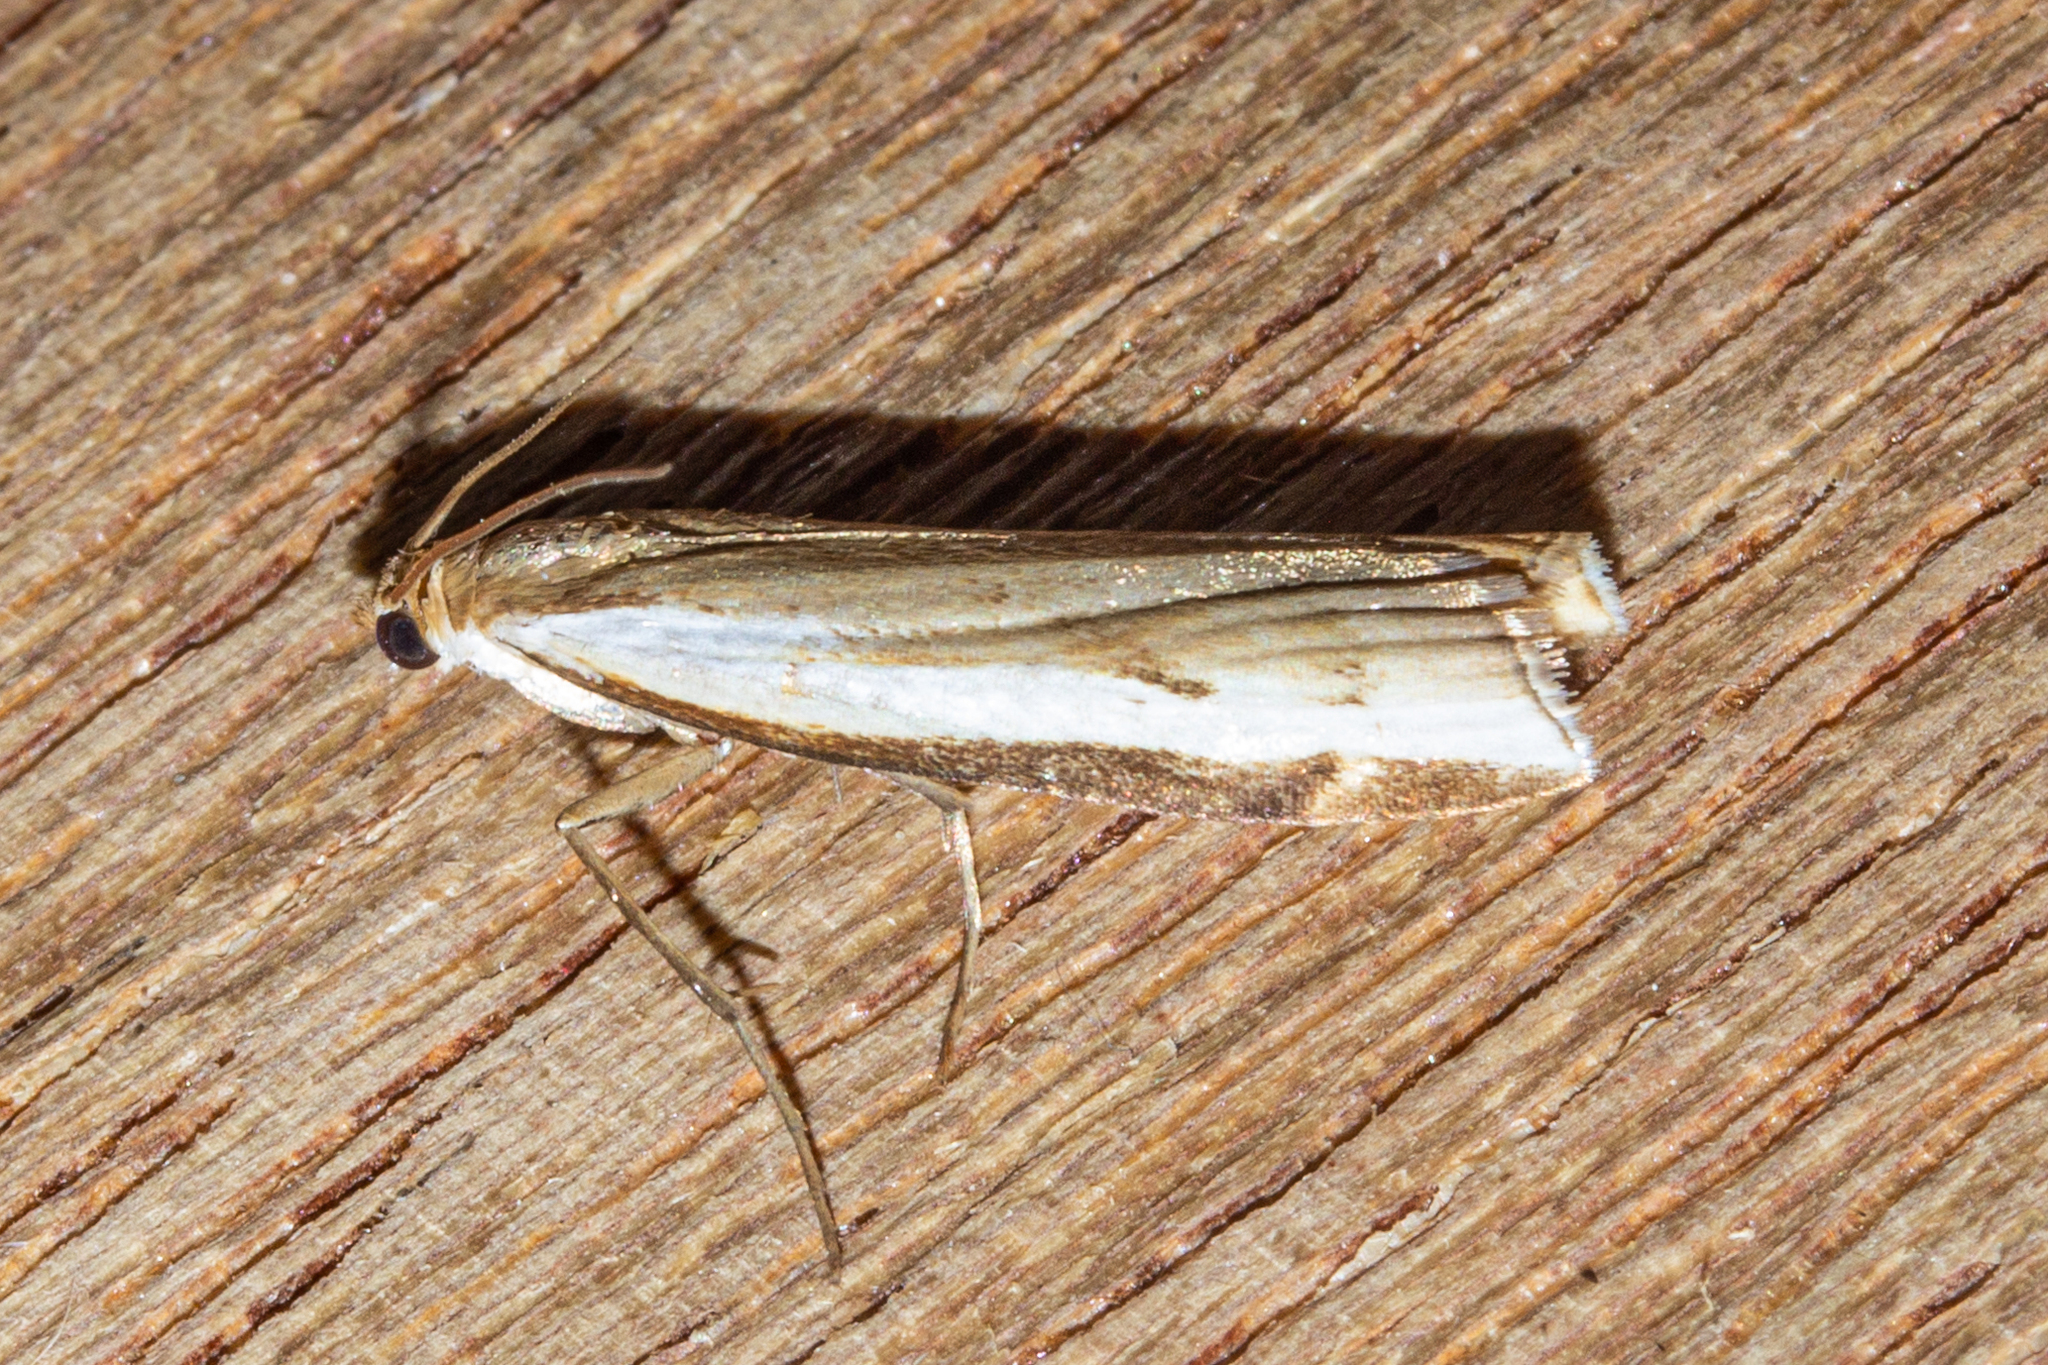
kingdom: Animalia
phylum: Arthropoda
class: Insecta
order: Lepidoptera
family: Crambidae
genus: Orocrambus
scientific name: Orocrambus flexuosellus
